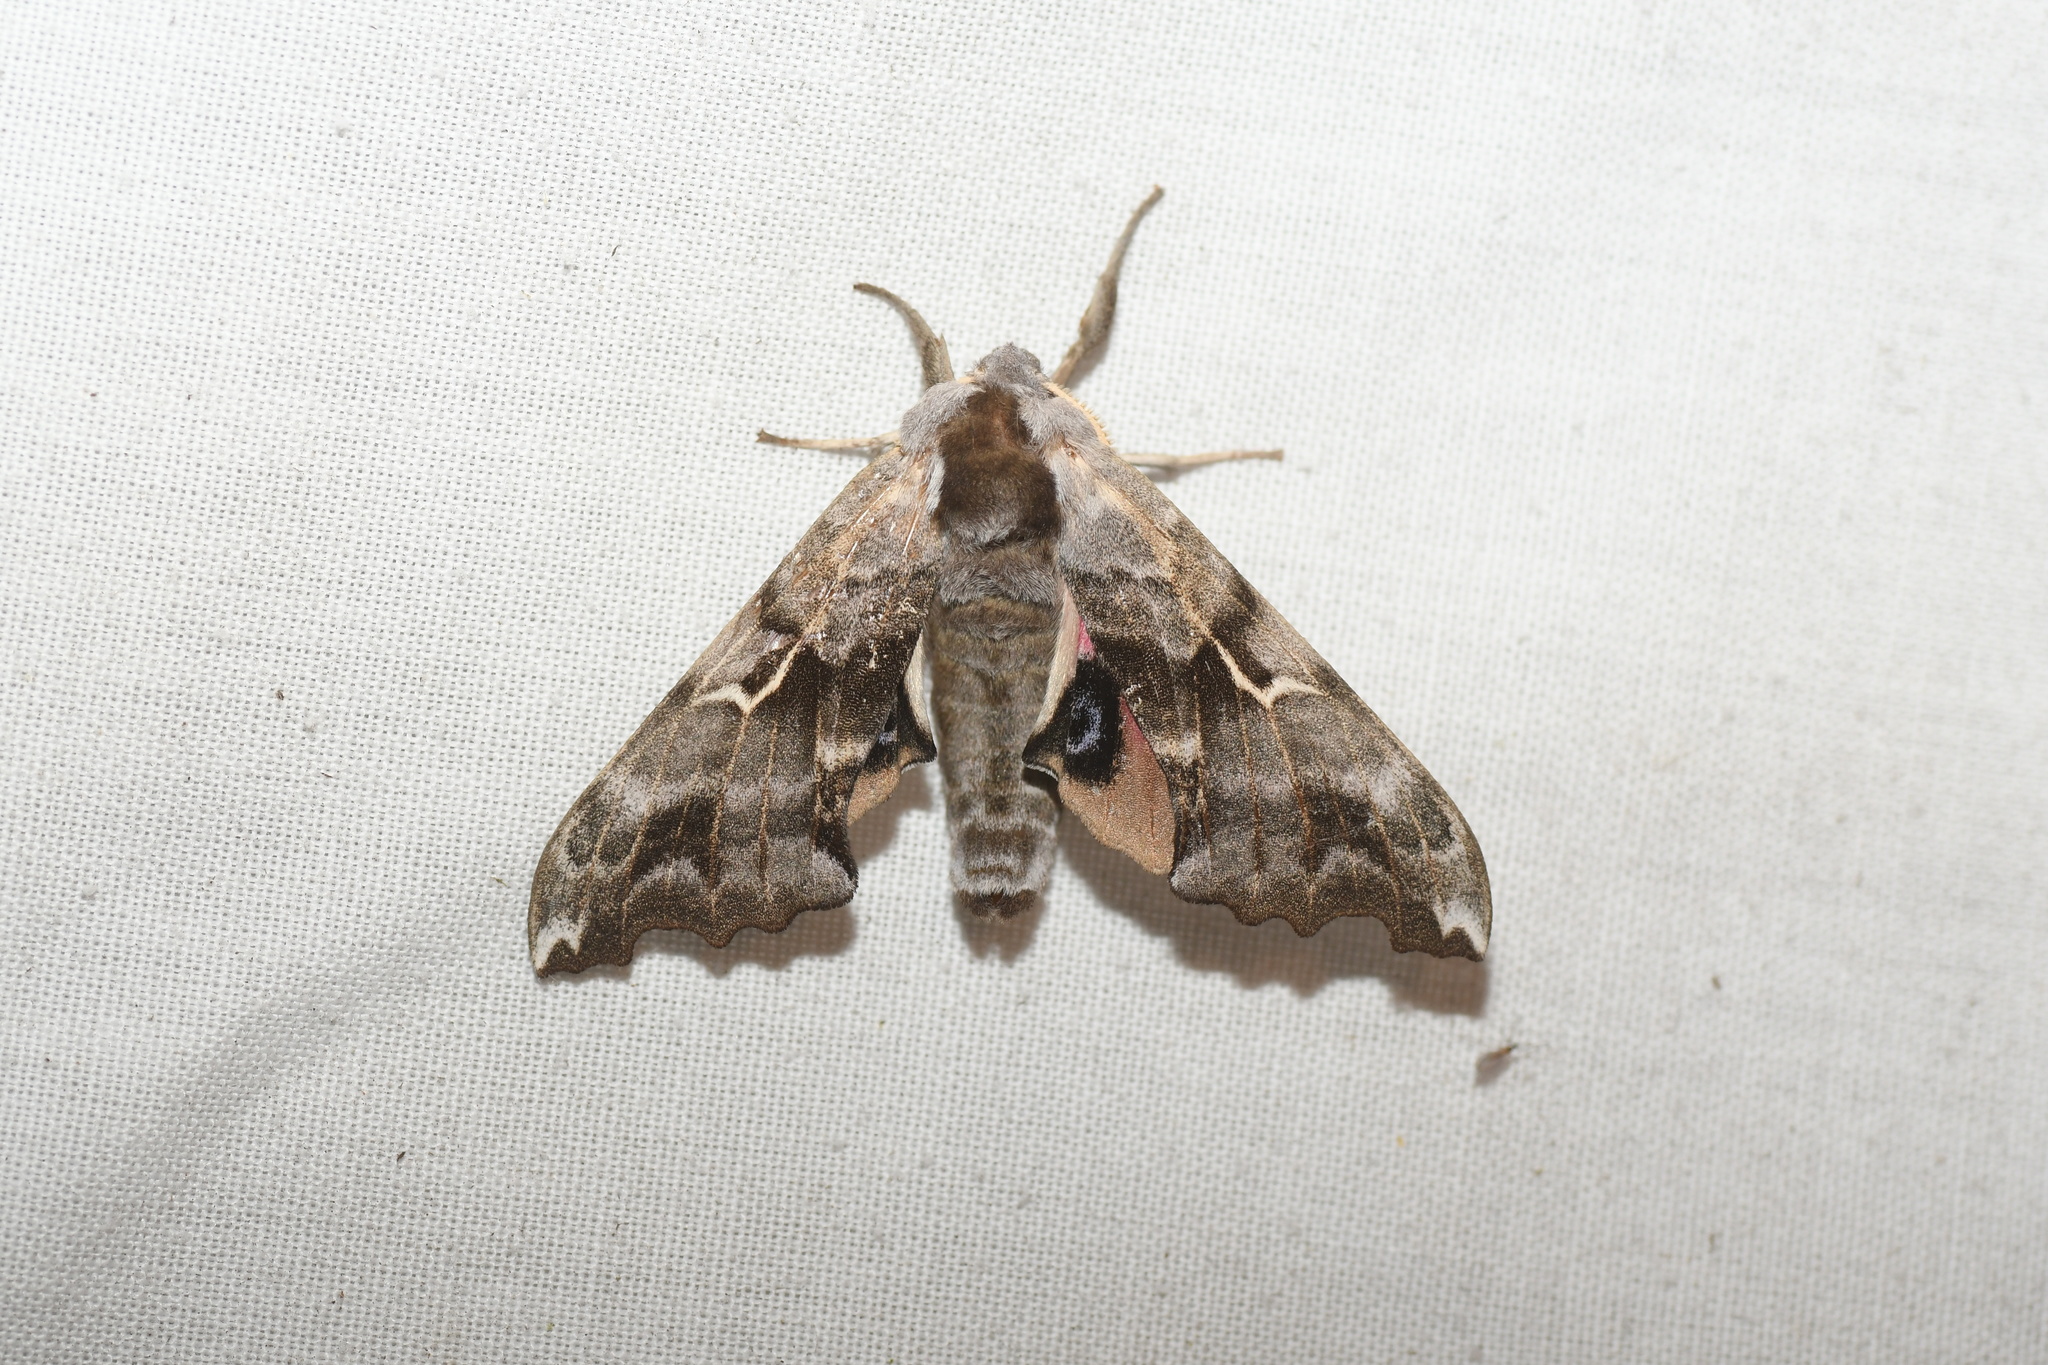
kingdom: Animalia
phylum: Arthropoda
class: Insecta
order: Lepidoptera
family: Sphingidae
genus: Smerinthus
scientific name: Smerinthus cerisyi
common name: Cerisy's sphinx moth
